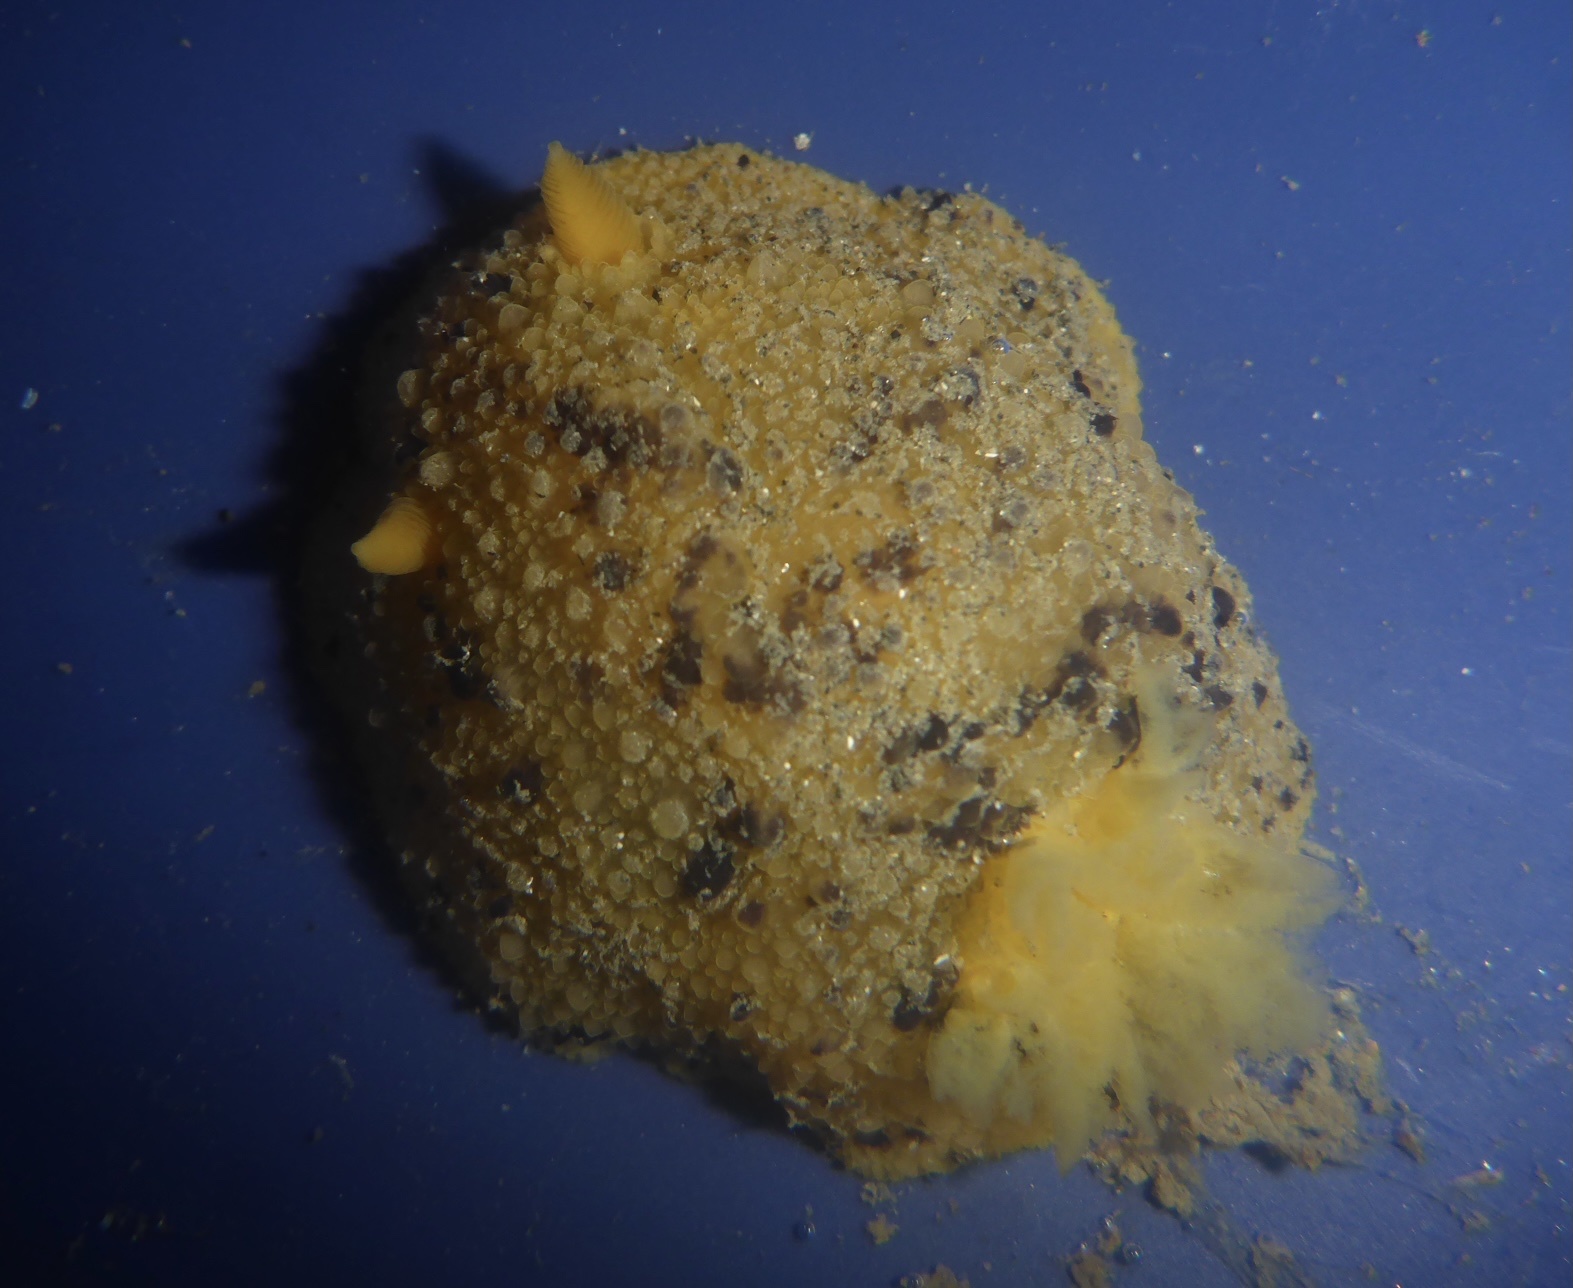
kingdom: Animalia
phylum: Mollusca
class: Gastropoda
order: Nudibranchia
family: Dorididae
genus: Doris
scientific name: Doris montereyensis
